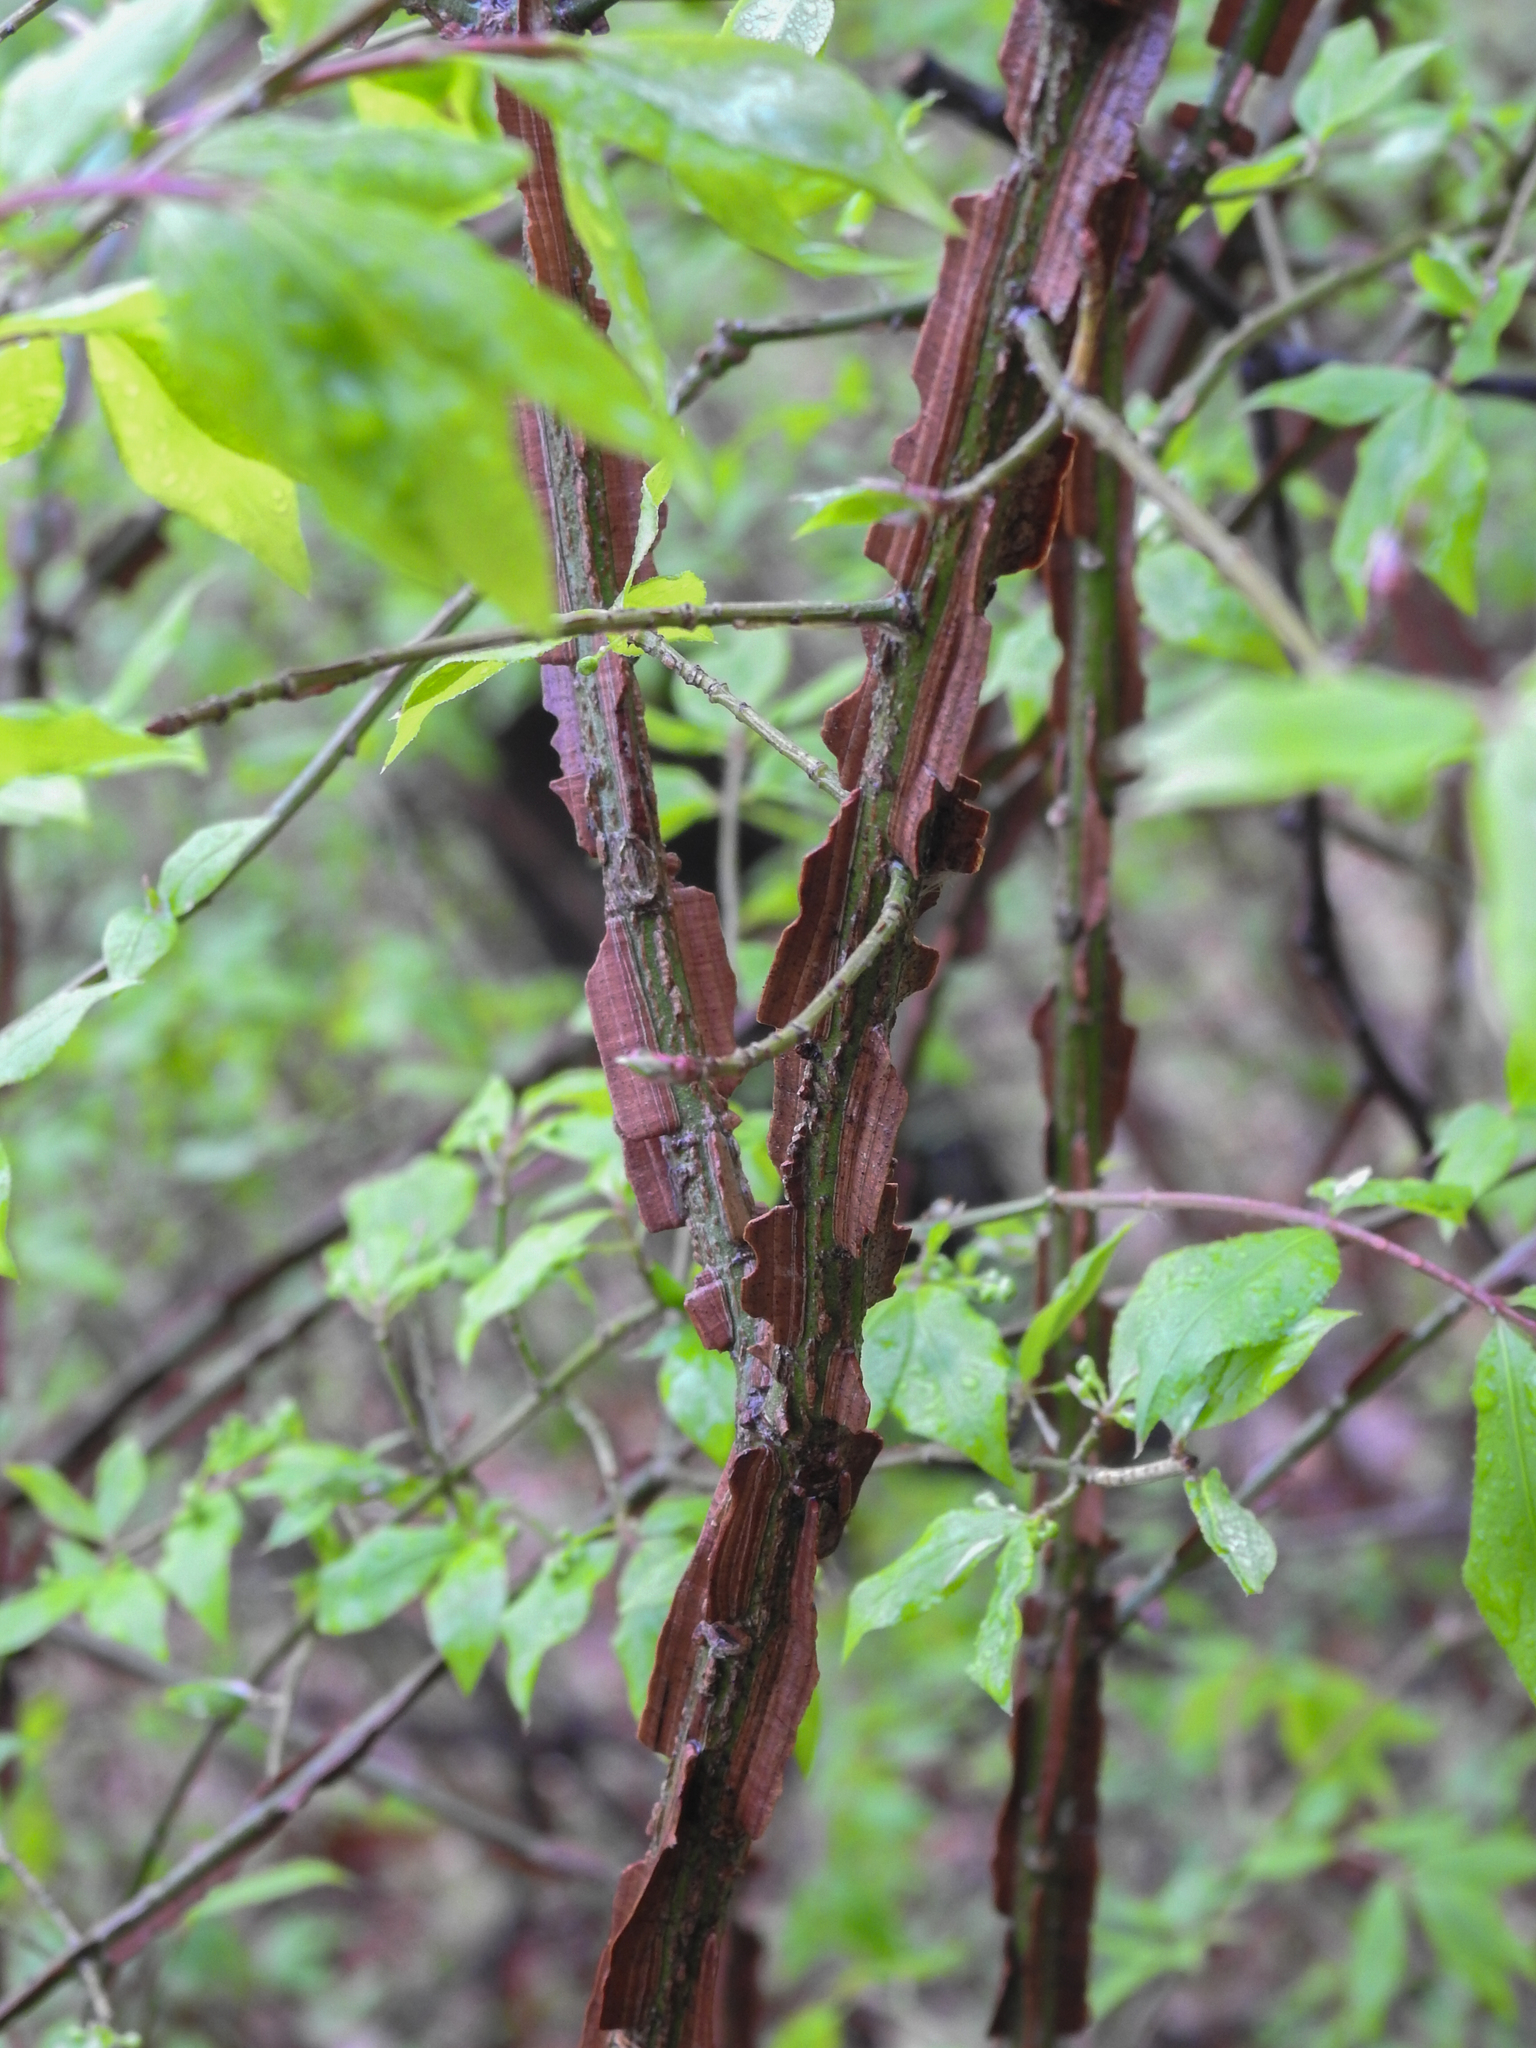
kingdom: Plantae
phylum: Tracheophyta
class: Magnoliopsida
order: Celastrales
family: Celastraceae
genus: Euonymus
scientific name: Euonymus alatus
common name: Winged euonymus
